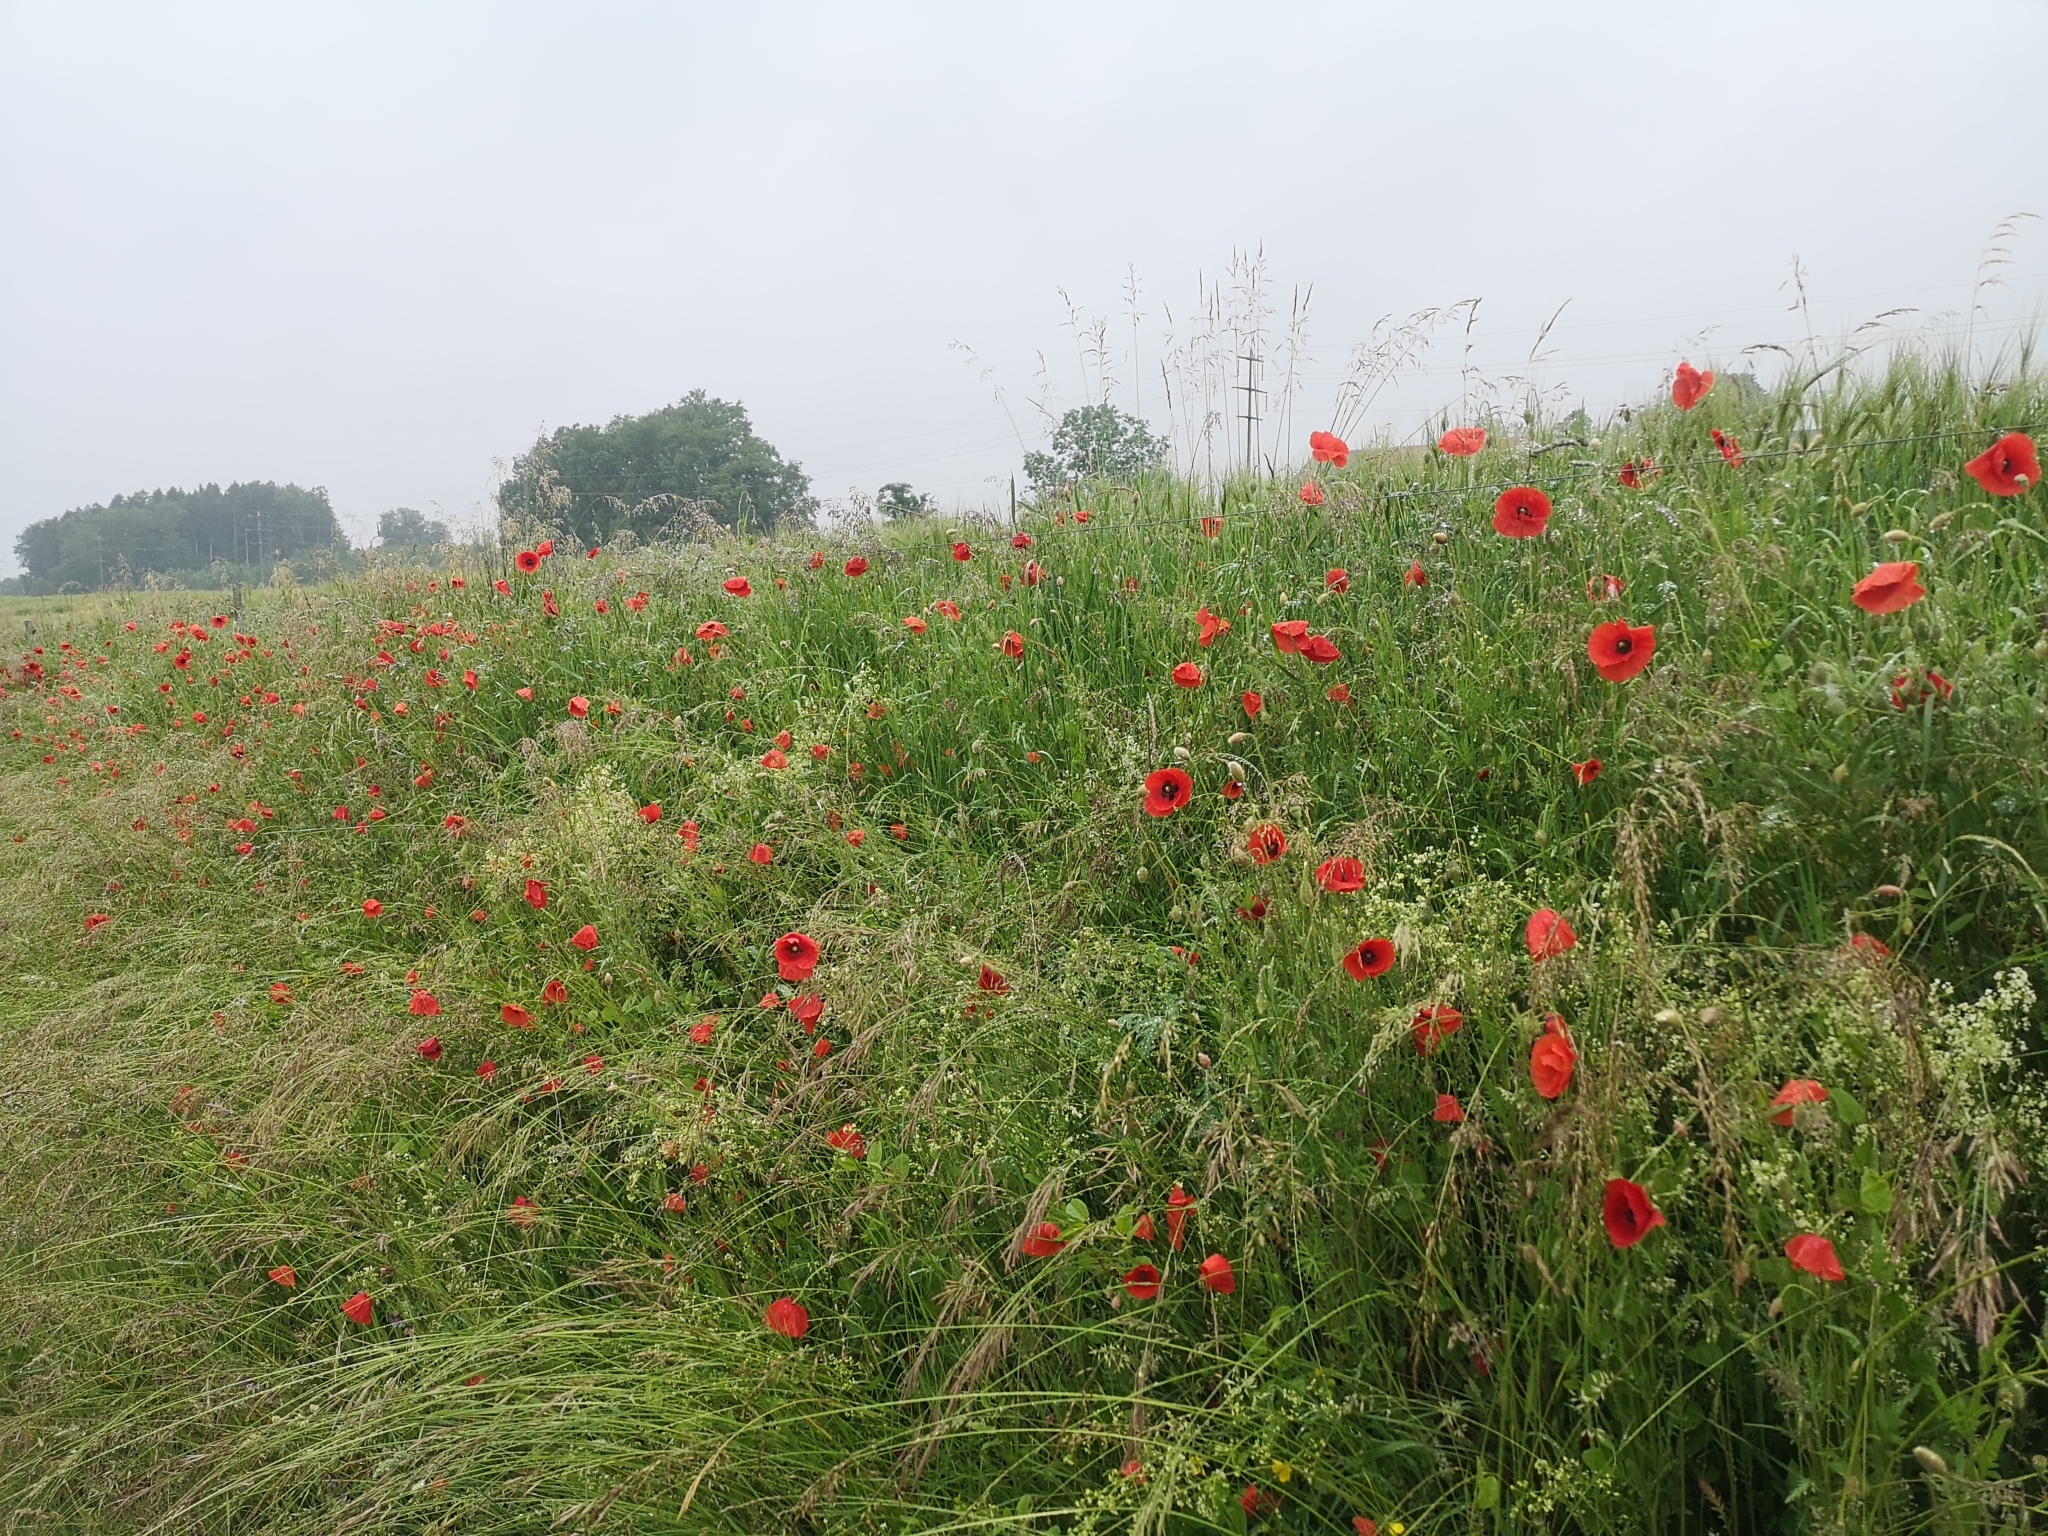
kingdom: Plantae
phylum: Tracheophyta
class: Magnoliopsida
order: Ranunculales
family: Papaveraceae
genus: Papaver
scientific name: Papaver rhoeas
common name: Corn poppy
